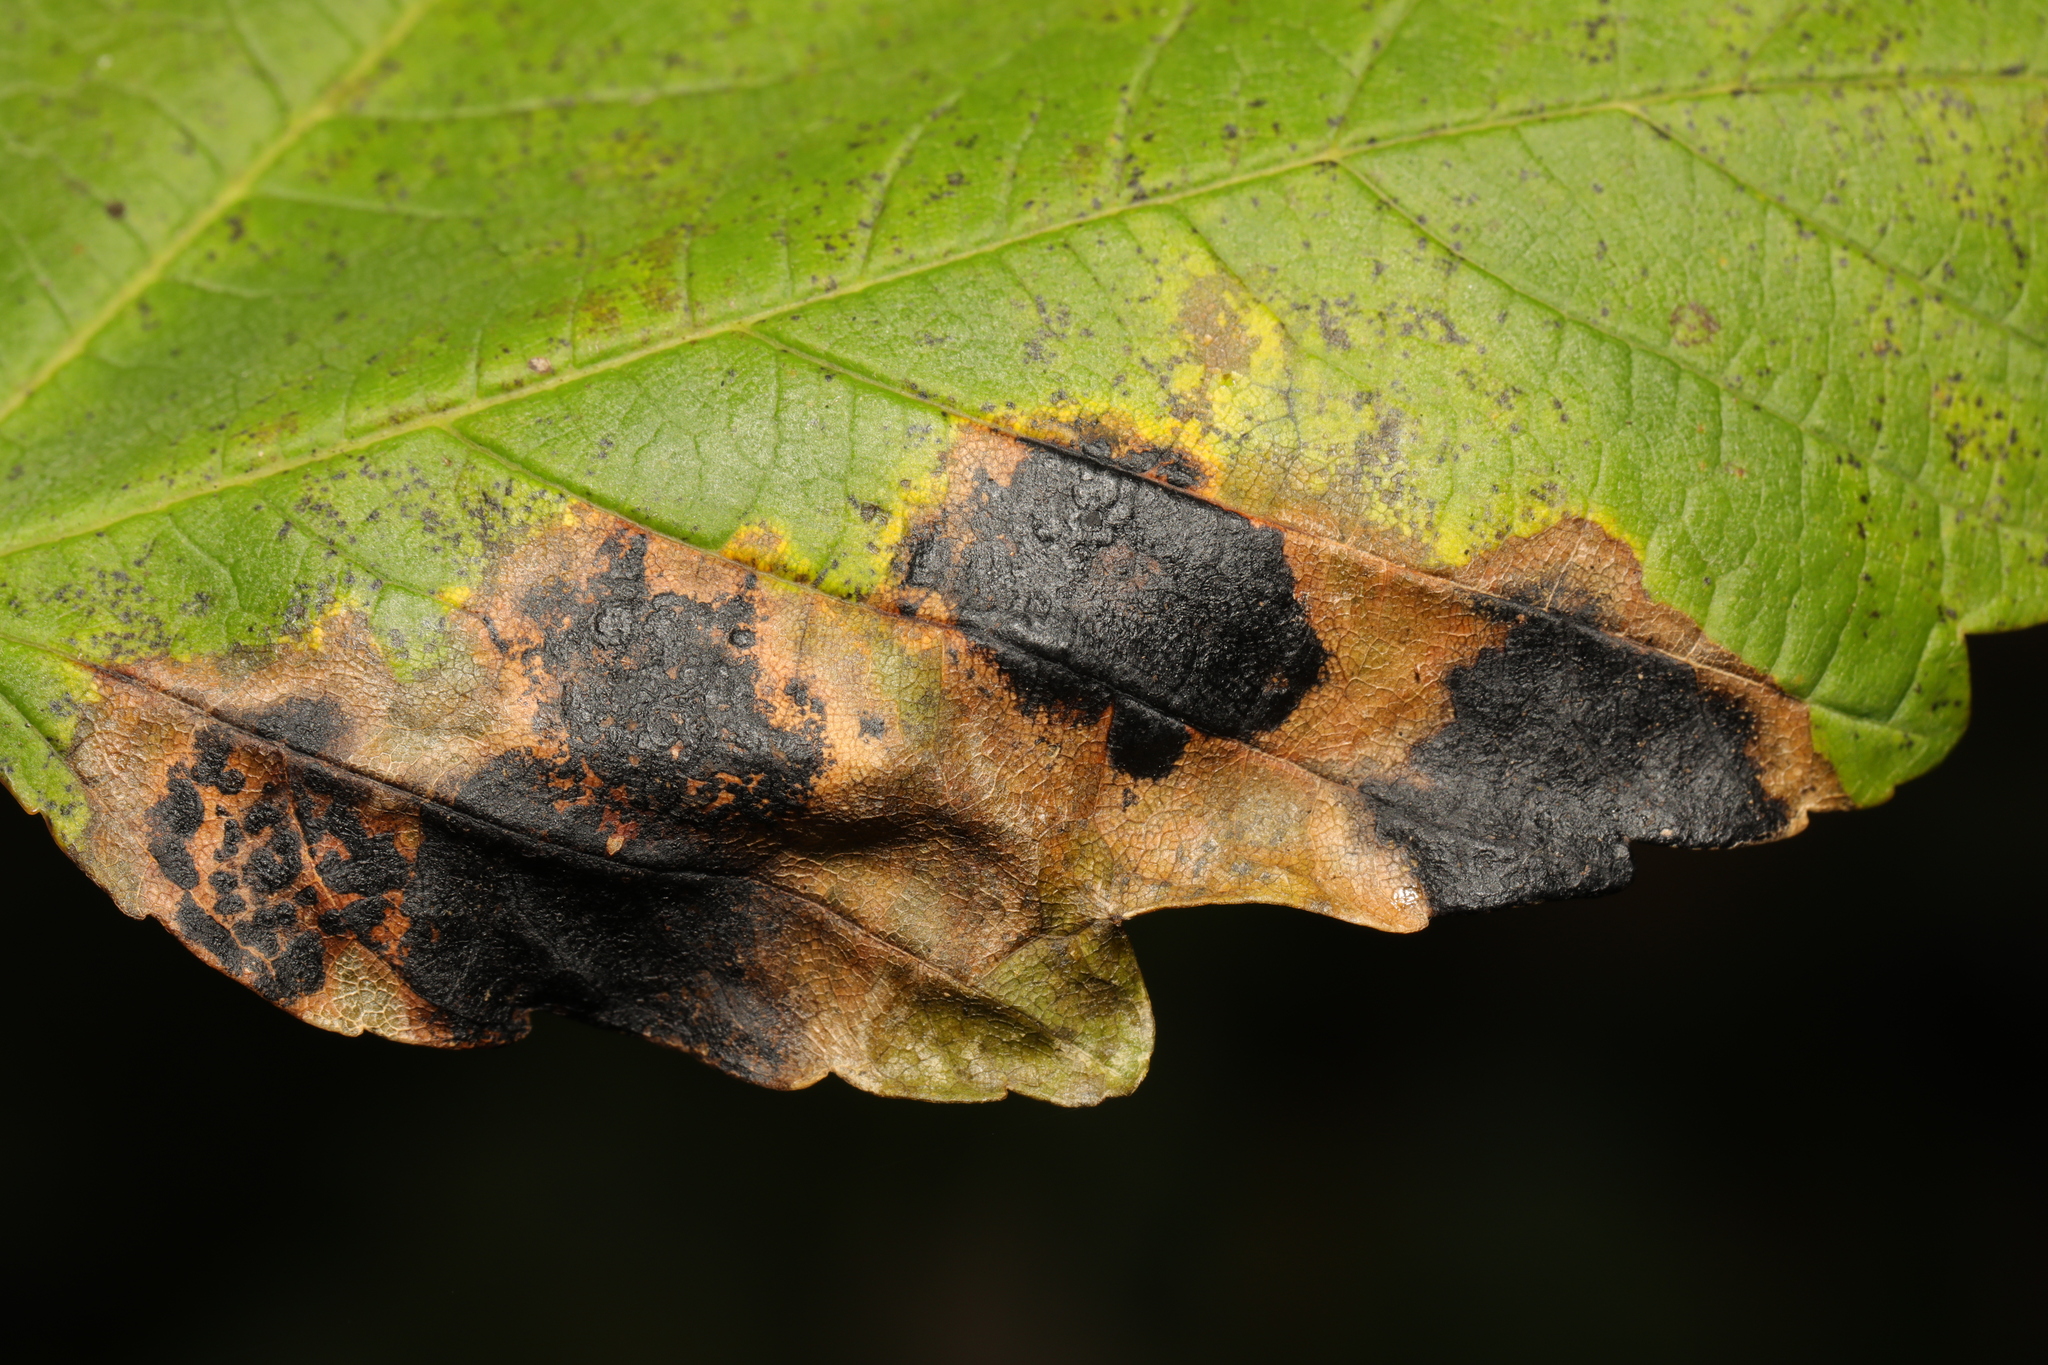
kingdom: Fungi
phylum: Ascomycota
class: Leotiomycetes
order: Rhytismatales
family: Rhytismataceae
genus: Rhytisma
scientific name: Rhytisma acerinum
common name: European tar spot
